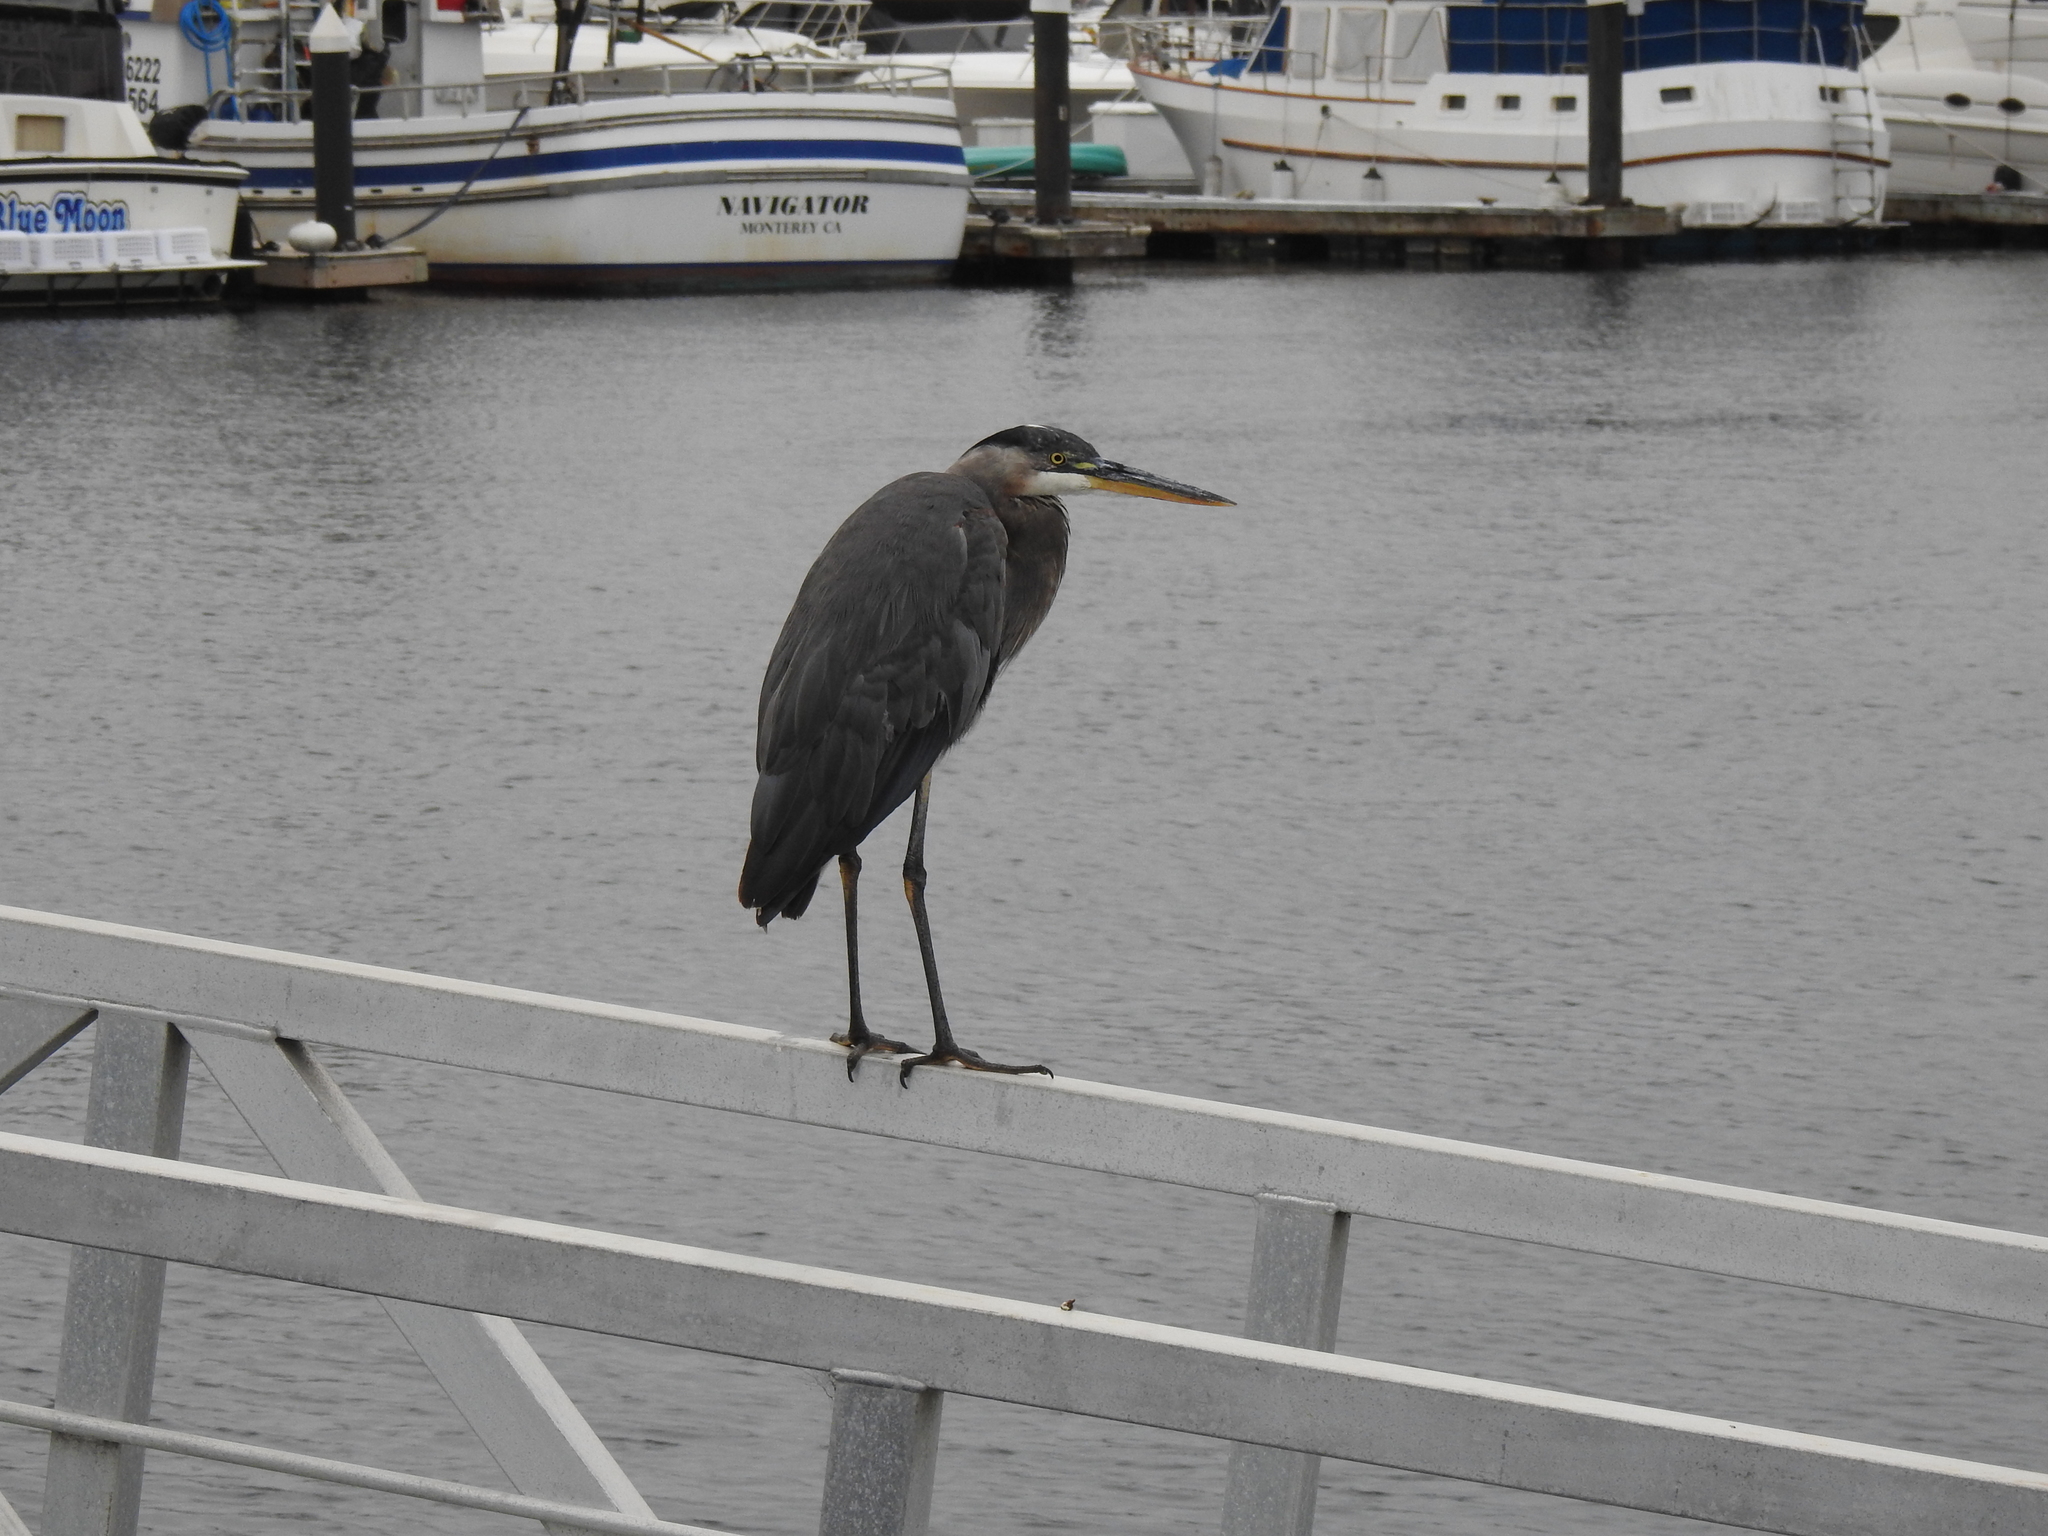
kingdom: Animalia
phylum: Chordata
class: Aves
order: Pelecaniformes
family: Ardeidae
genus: Ardea
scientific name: Ardea herodias
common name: Great blue heron
